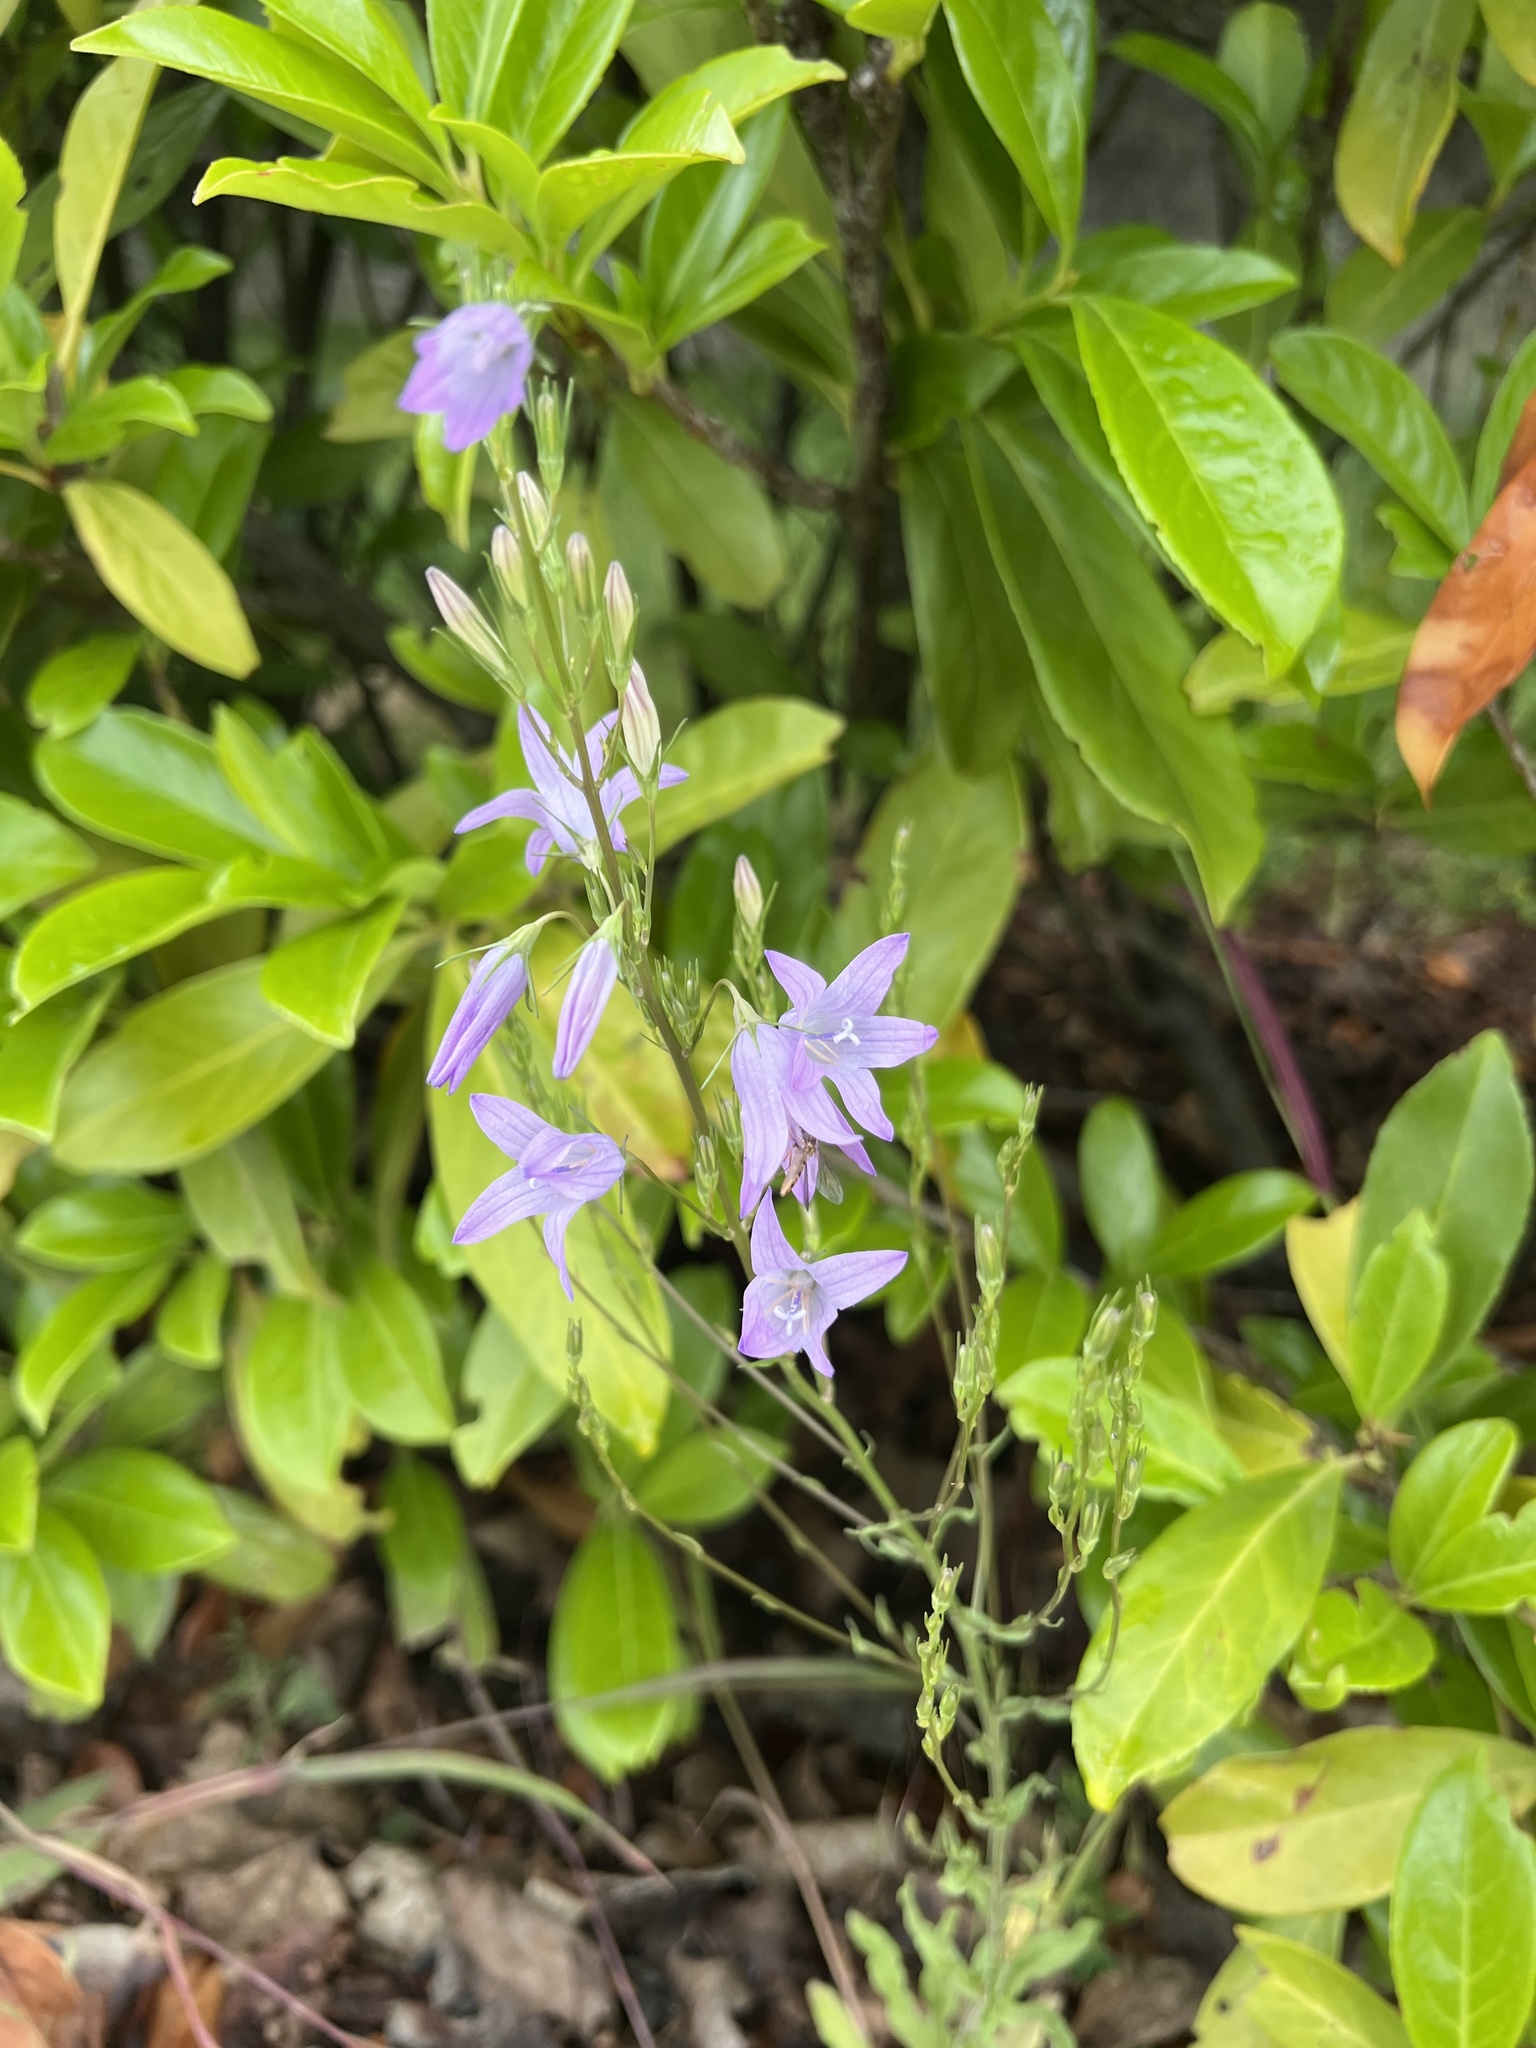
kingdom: Plantae
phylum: Tracheophyta
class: Magnoliopsida
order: Asterales
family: Campanulaceae
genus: Campanula
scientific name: Campanula rapunculus
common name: Rampion bellflower
